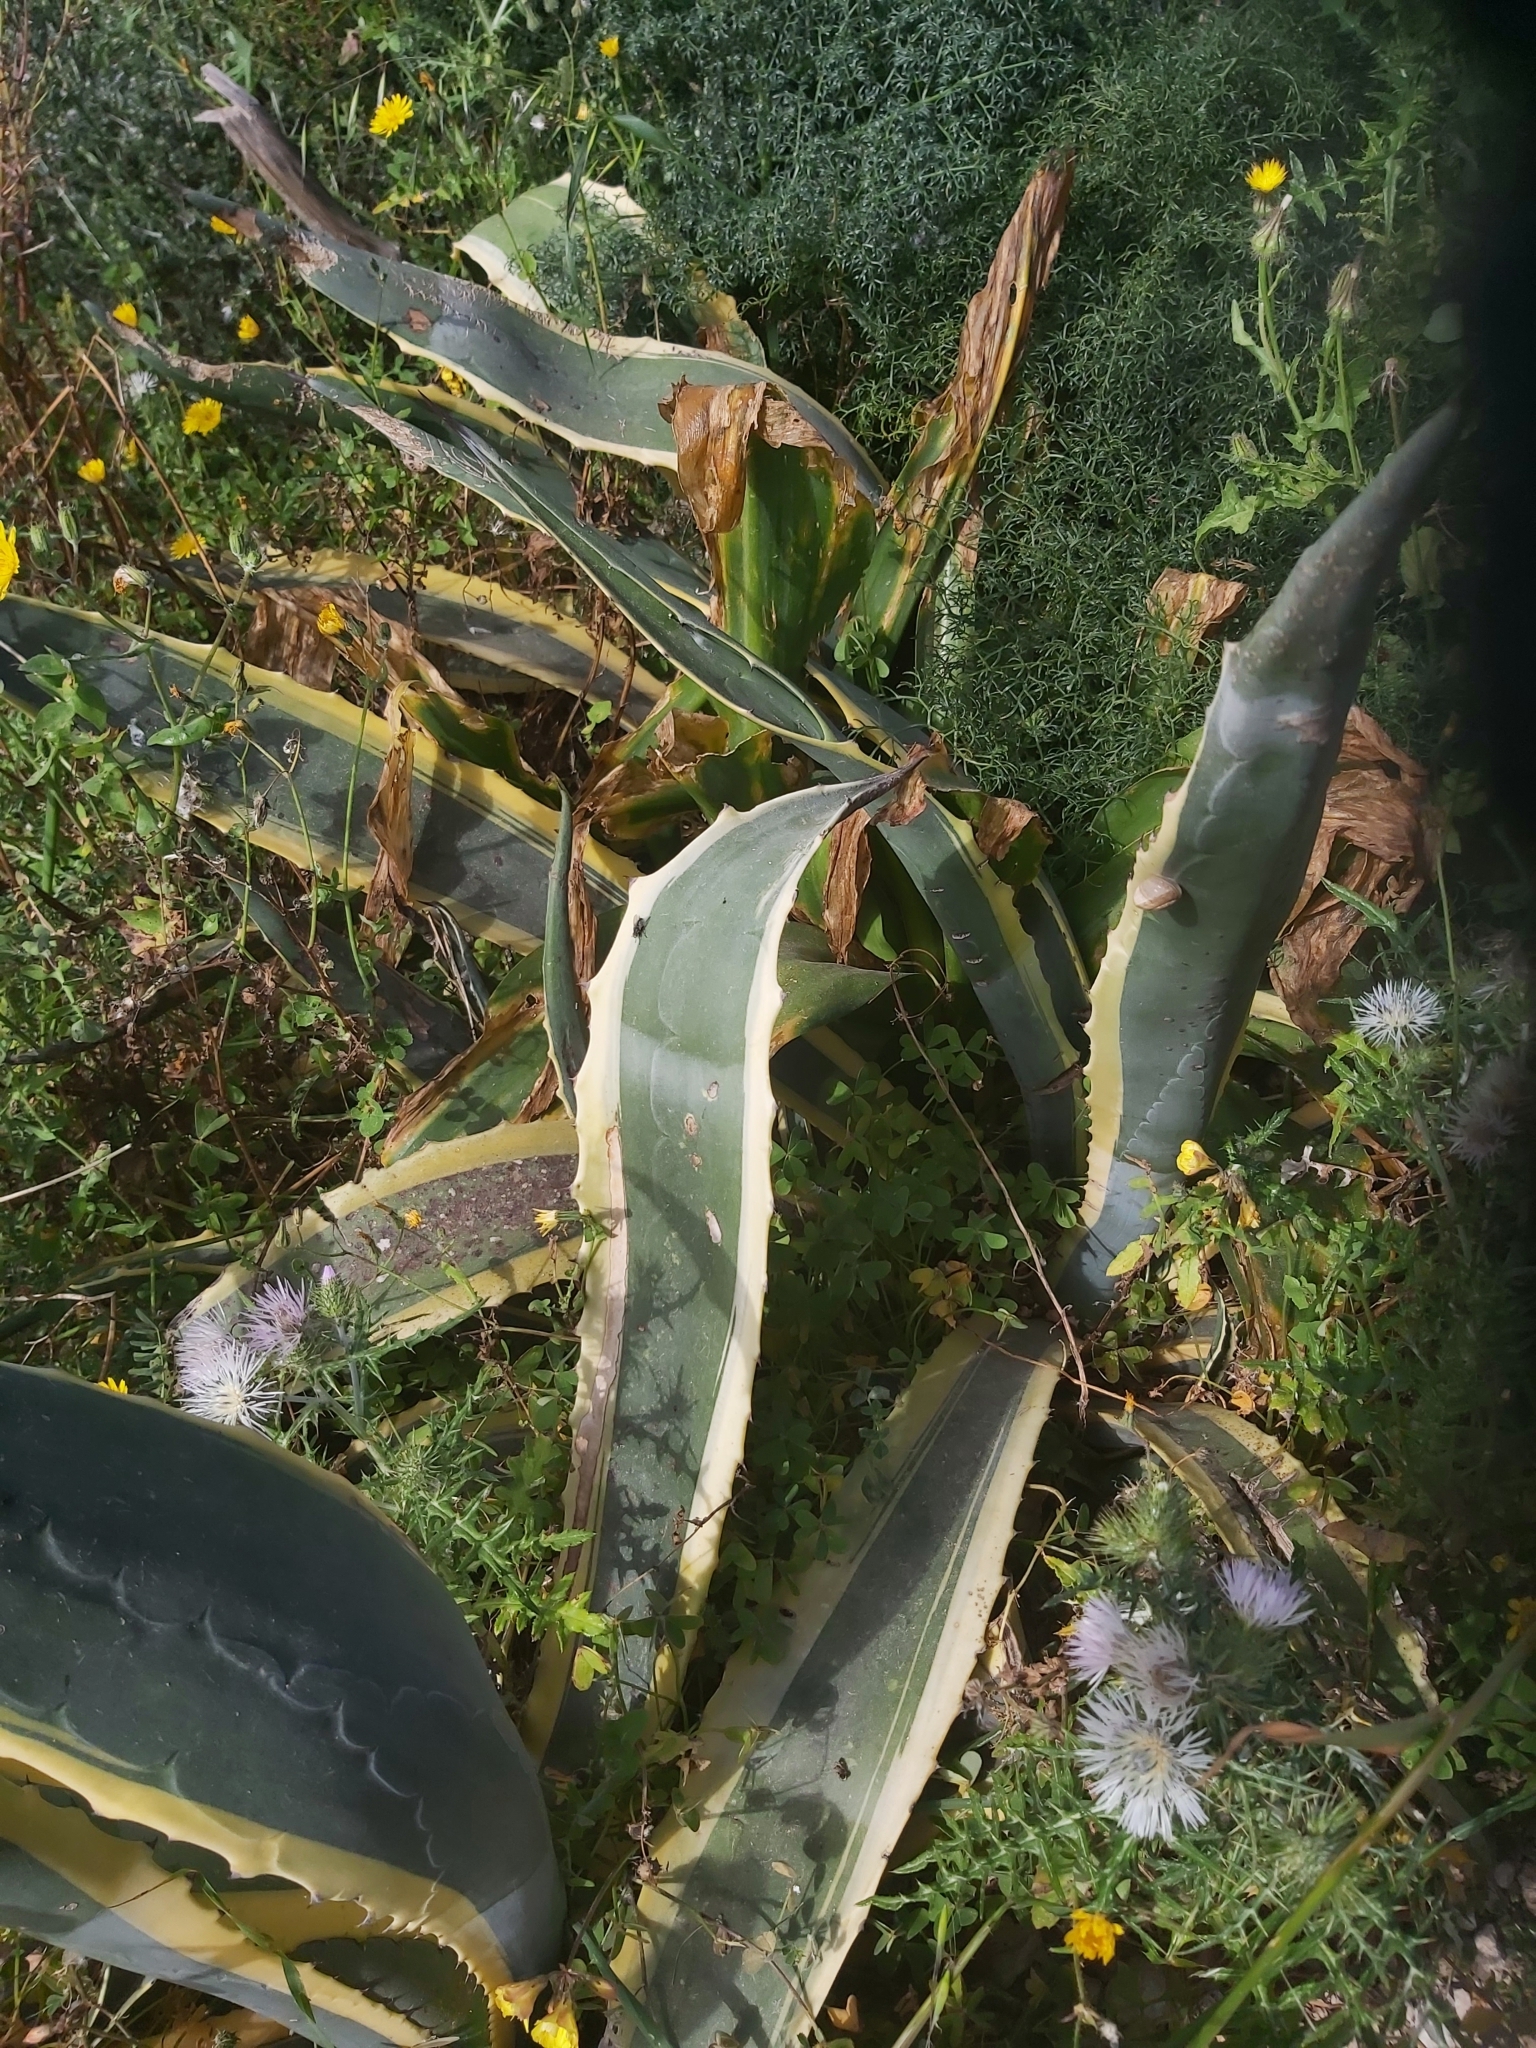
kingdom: Plantae
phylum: Tracheophyta
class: Liliopsida
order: Asparagales
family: Asparagaceae
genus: Agave
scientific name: Agave americana
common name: Centuryplant
